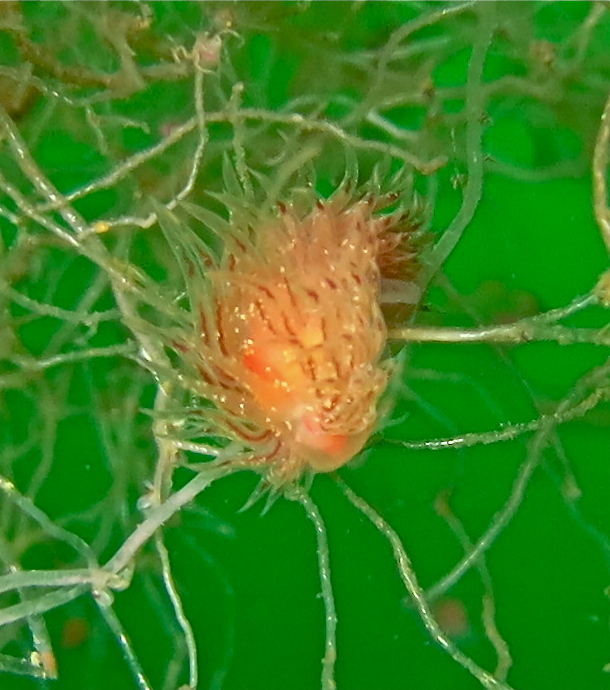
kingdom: Animalia
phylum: Mollusca
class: Gastropoda
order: Nudibranchia
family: Cumanotidae
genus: Cumanotus
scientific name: Cumanotus beaumonti
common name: Polyp aeolis
